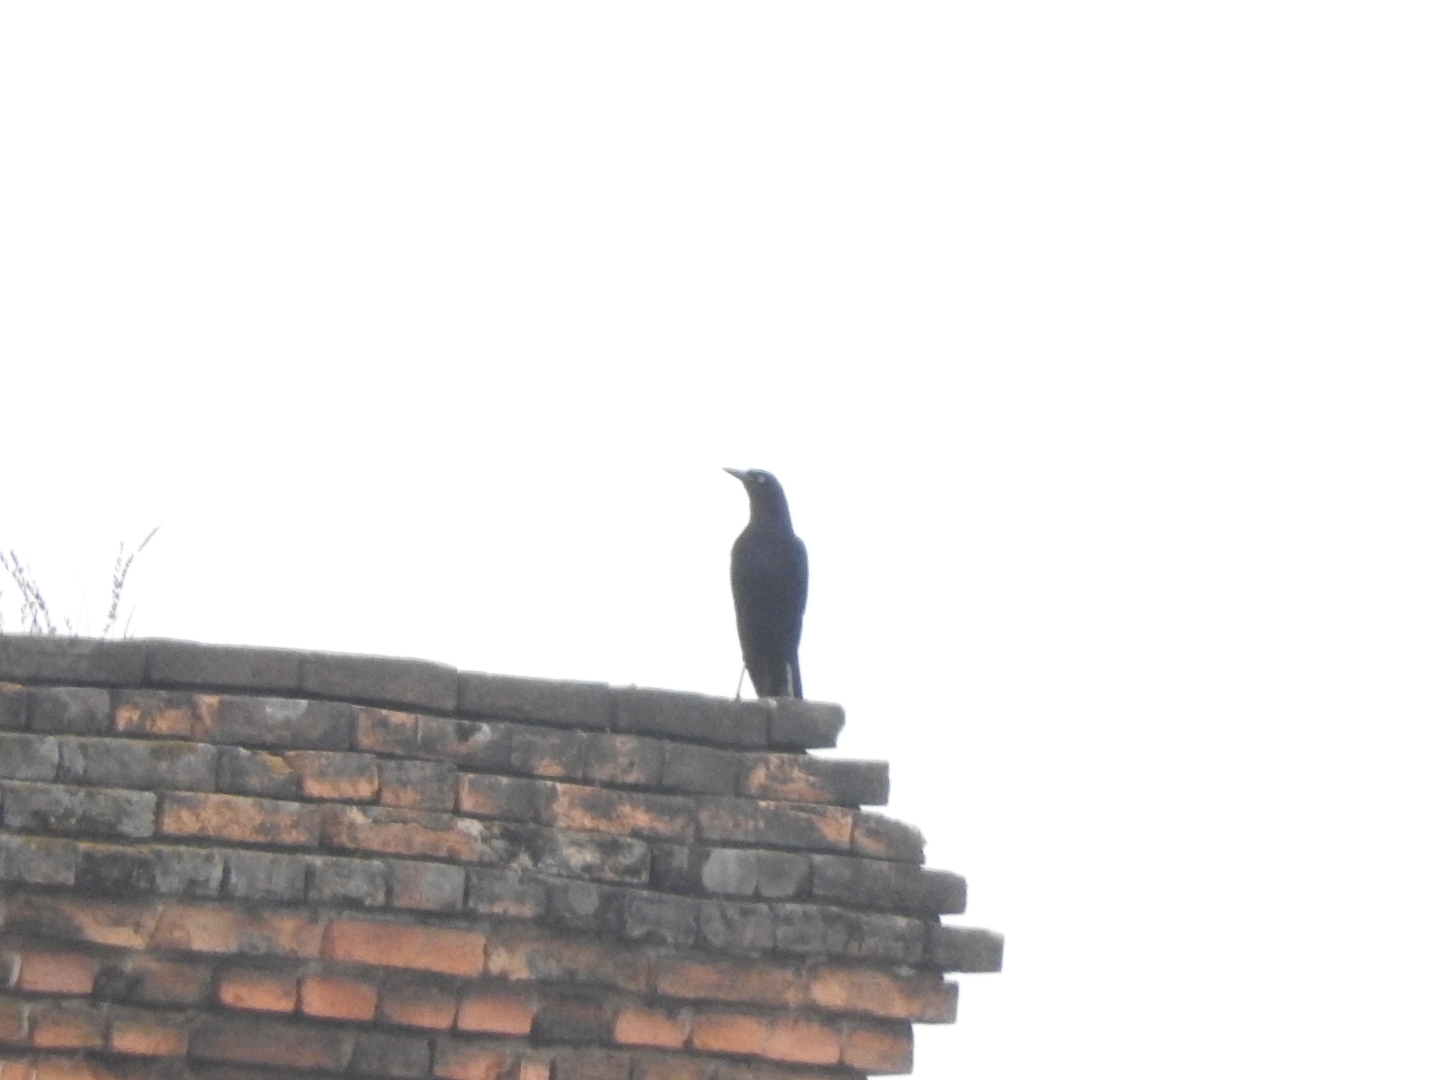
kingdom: Animalia
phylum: Chordata
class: Aves
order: Passeriformes
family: Icteridae
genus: Quiscalus
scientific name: Quiscalus mexicanus
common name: Great-tailed grackle
